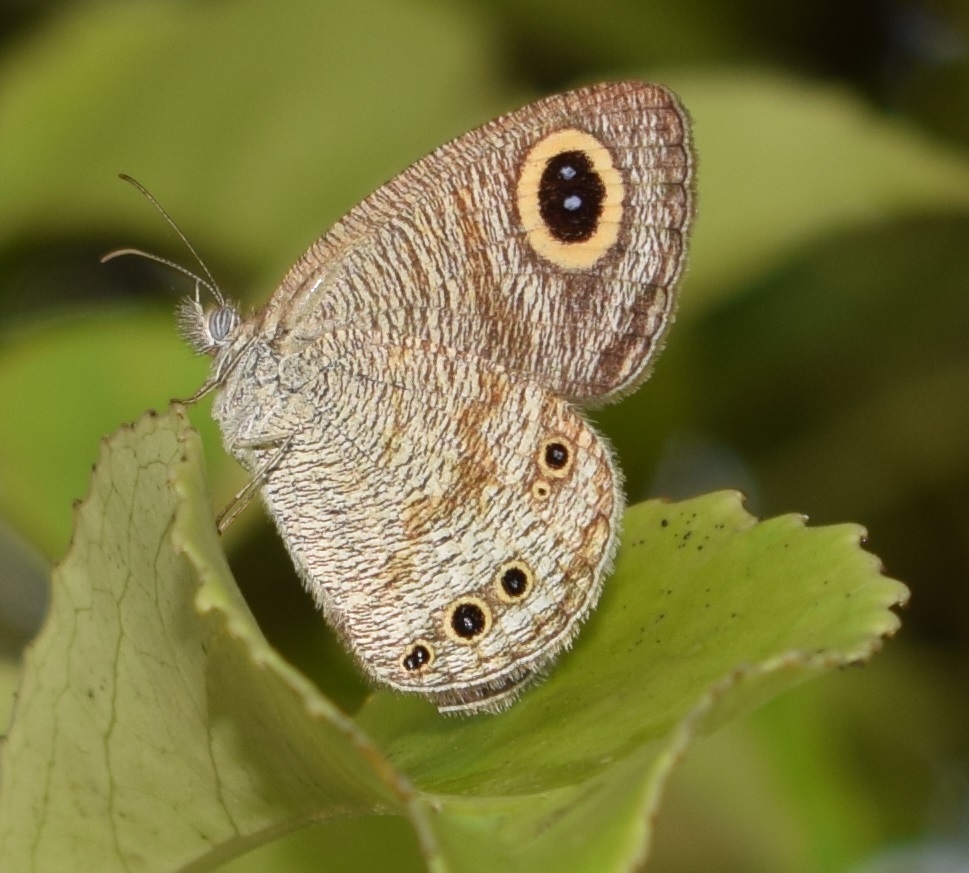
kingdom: Animalia
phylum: Arthropoda
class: Insecta
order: Lepidoptera
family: Nymphalidae
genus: Ypthima
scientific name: Ypthima huebneri
